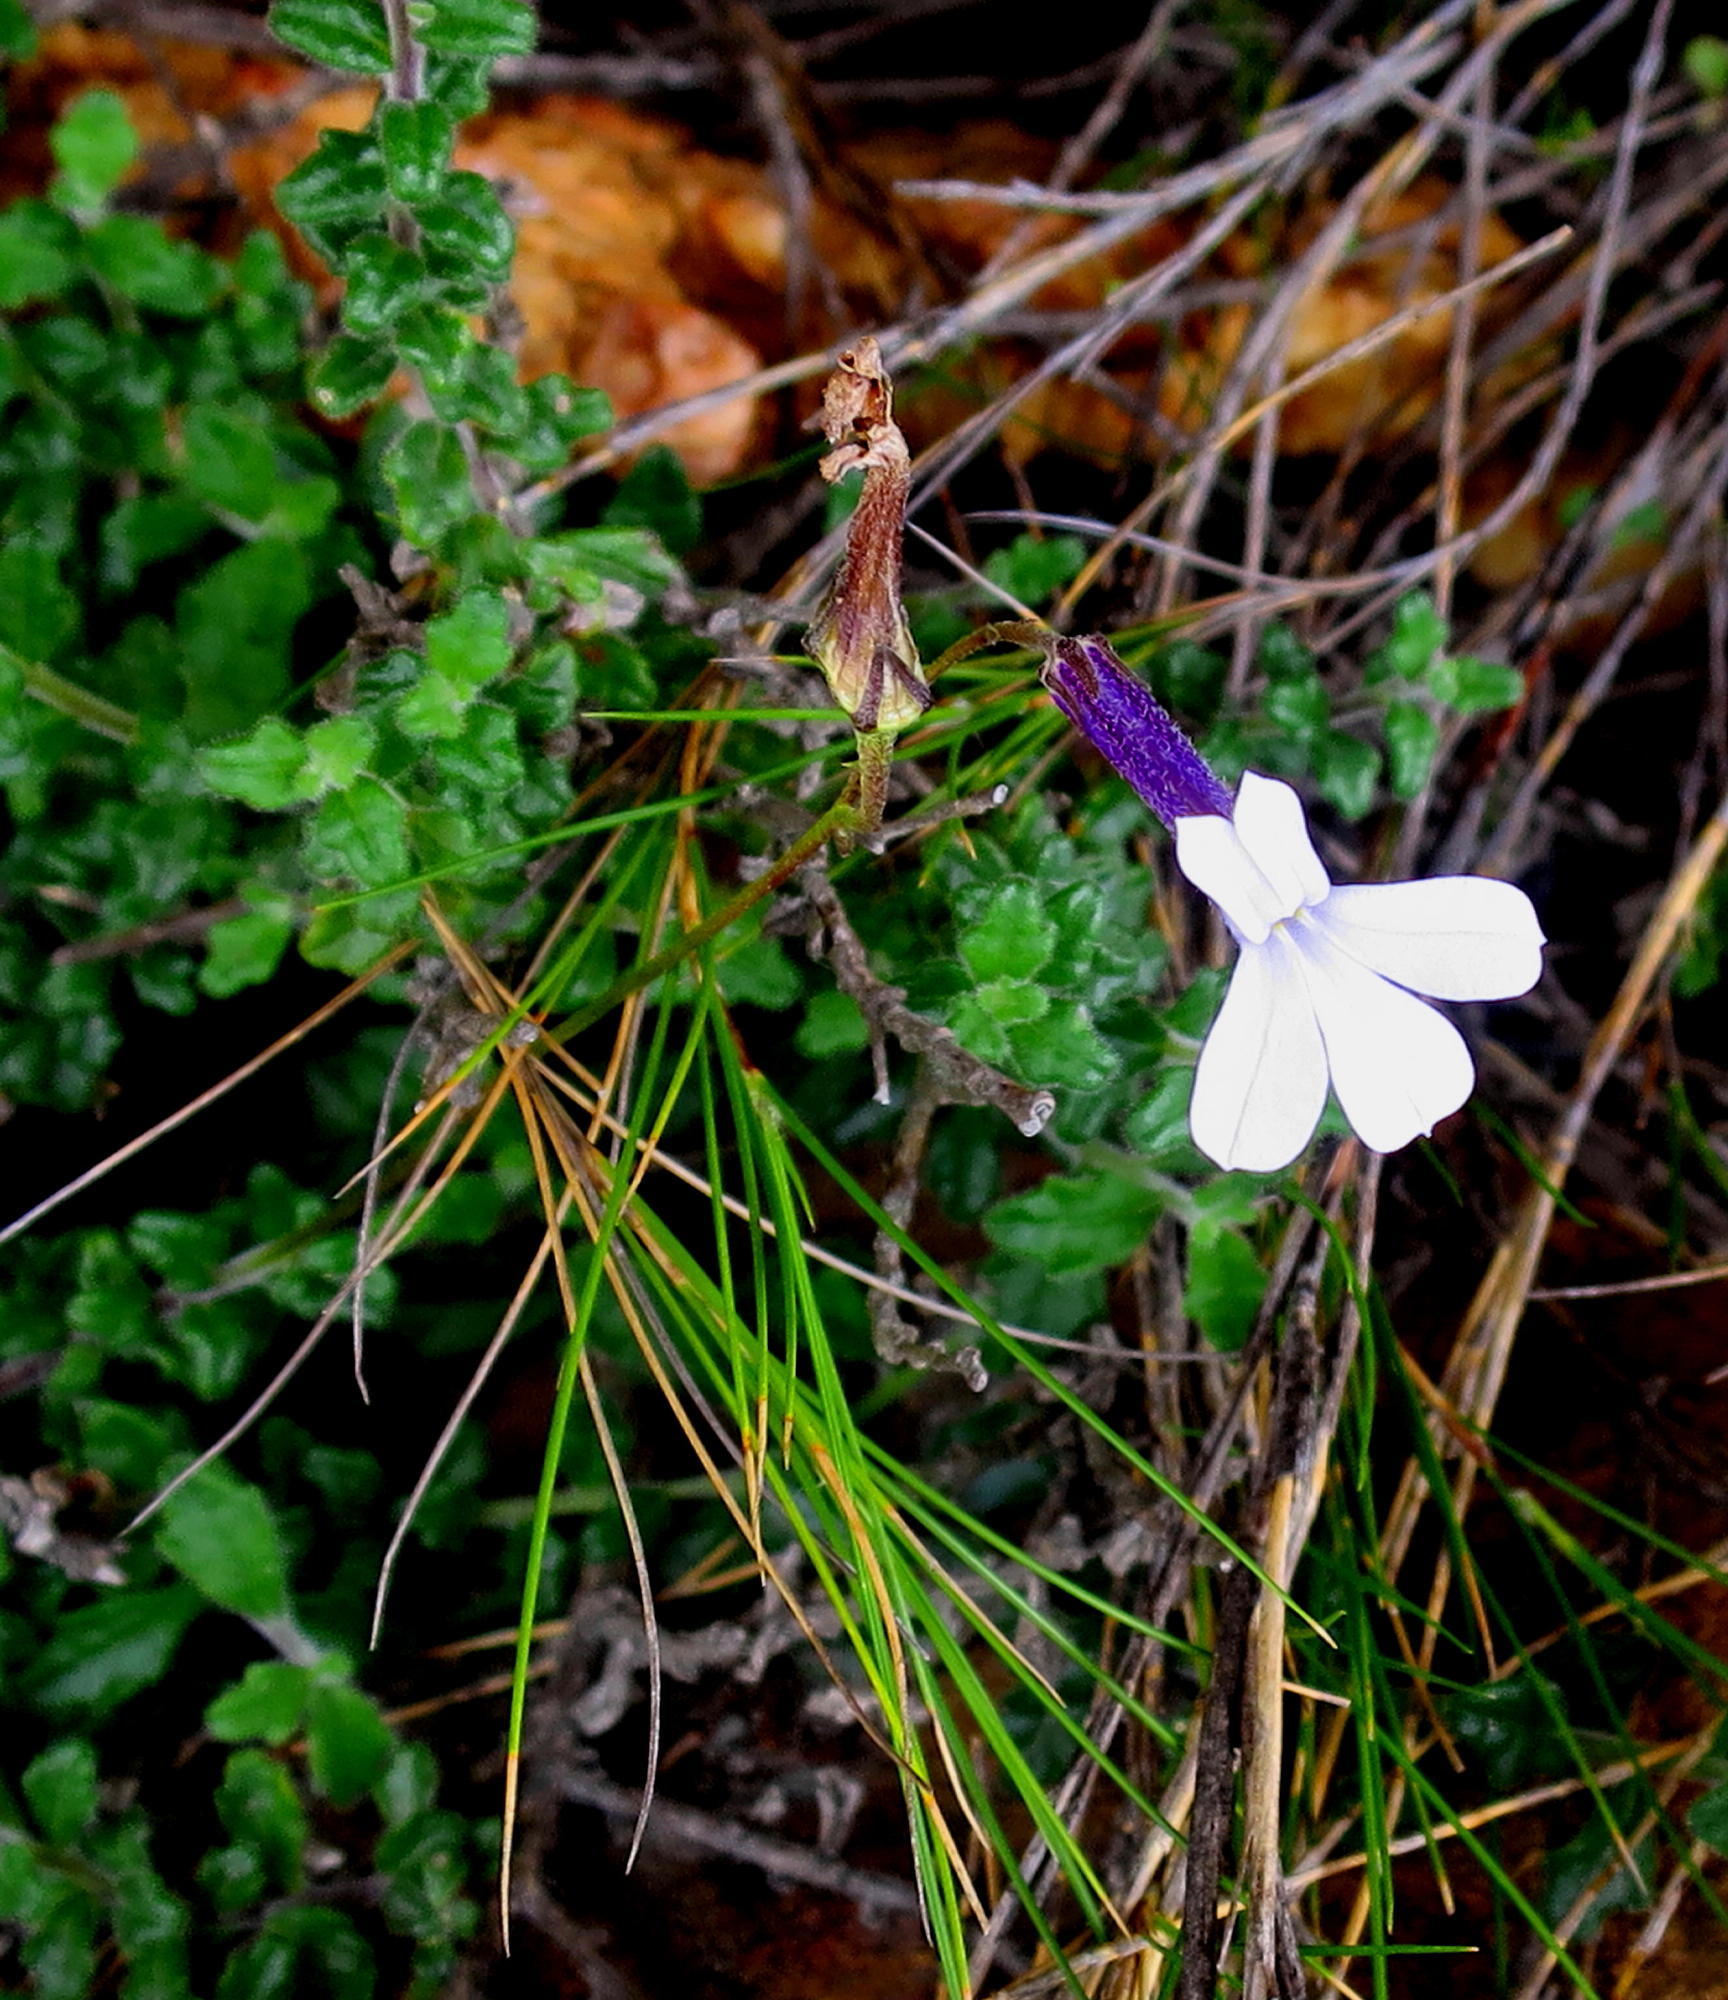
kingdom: Plantae
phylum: Tracheophyta
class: Magnoliopsida
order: Asterales
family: Campanulaceae
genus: Lobelia
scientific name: Lobelia dichroma
